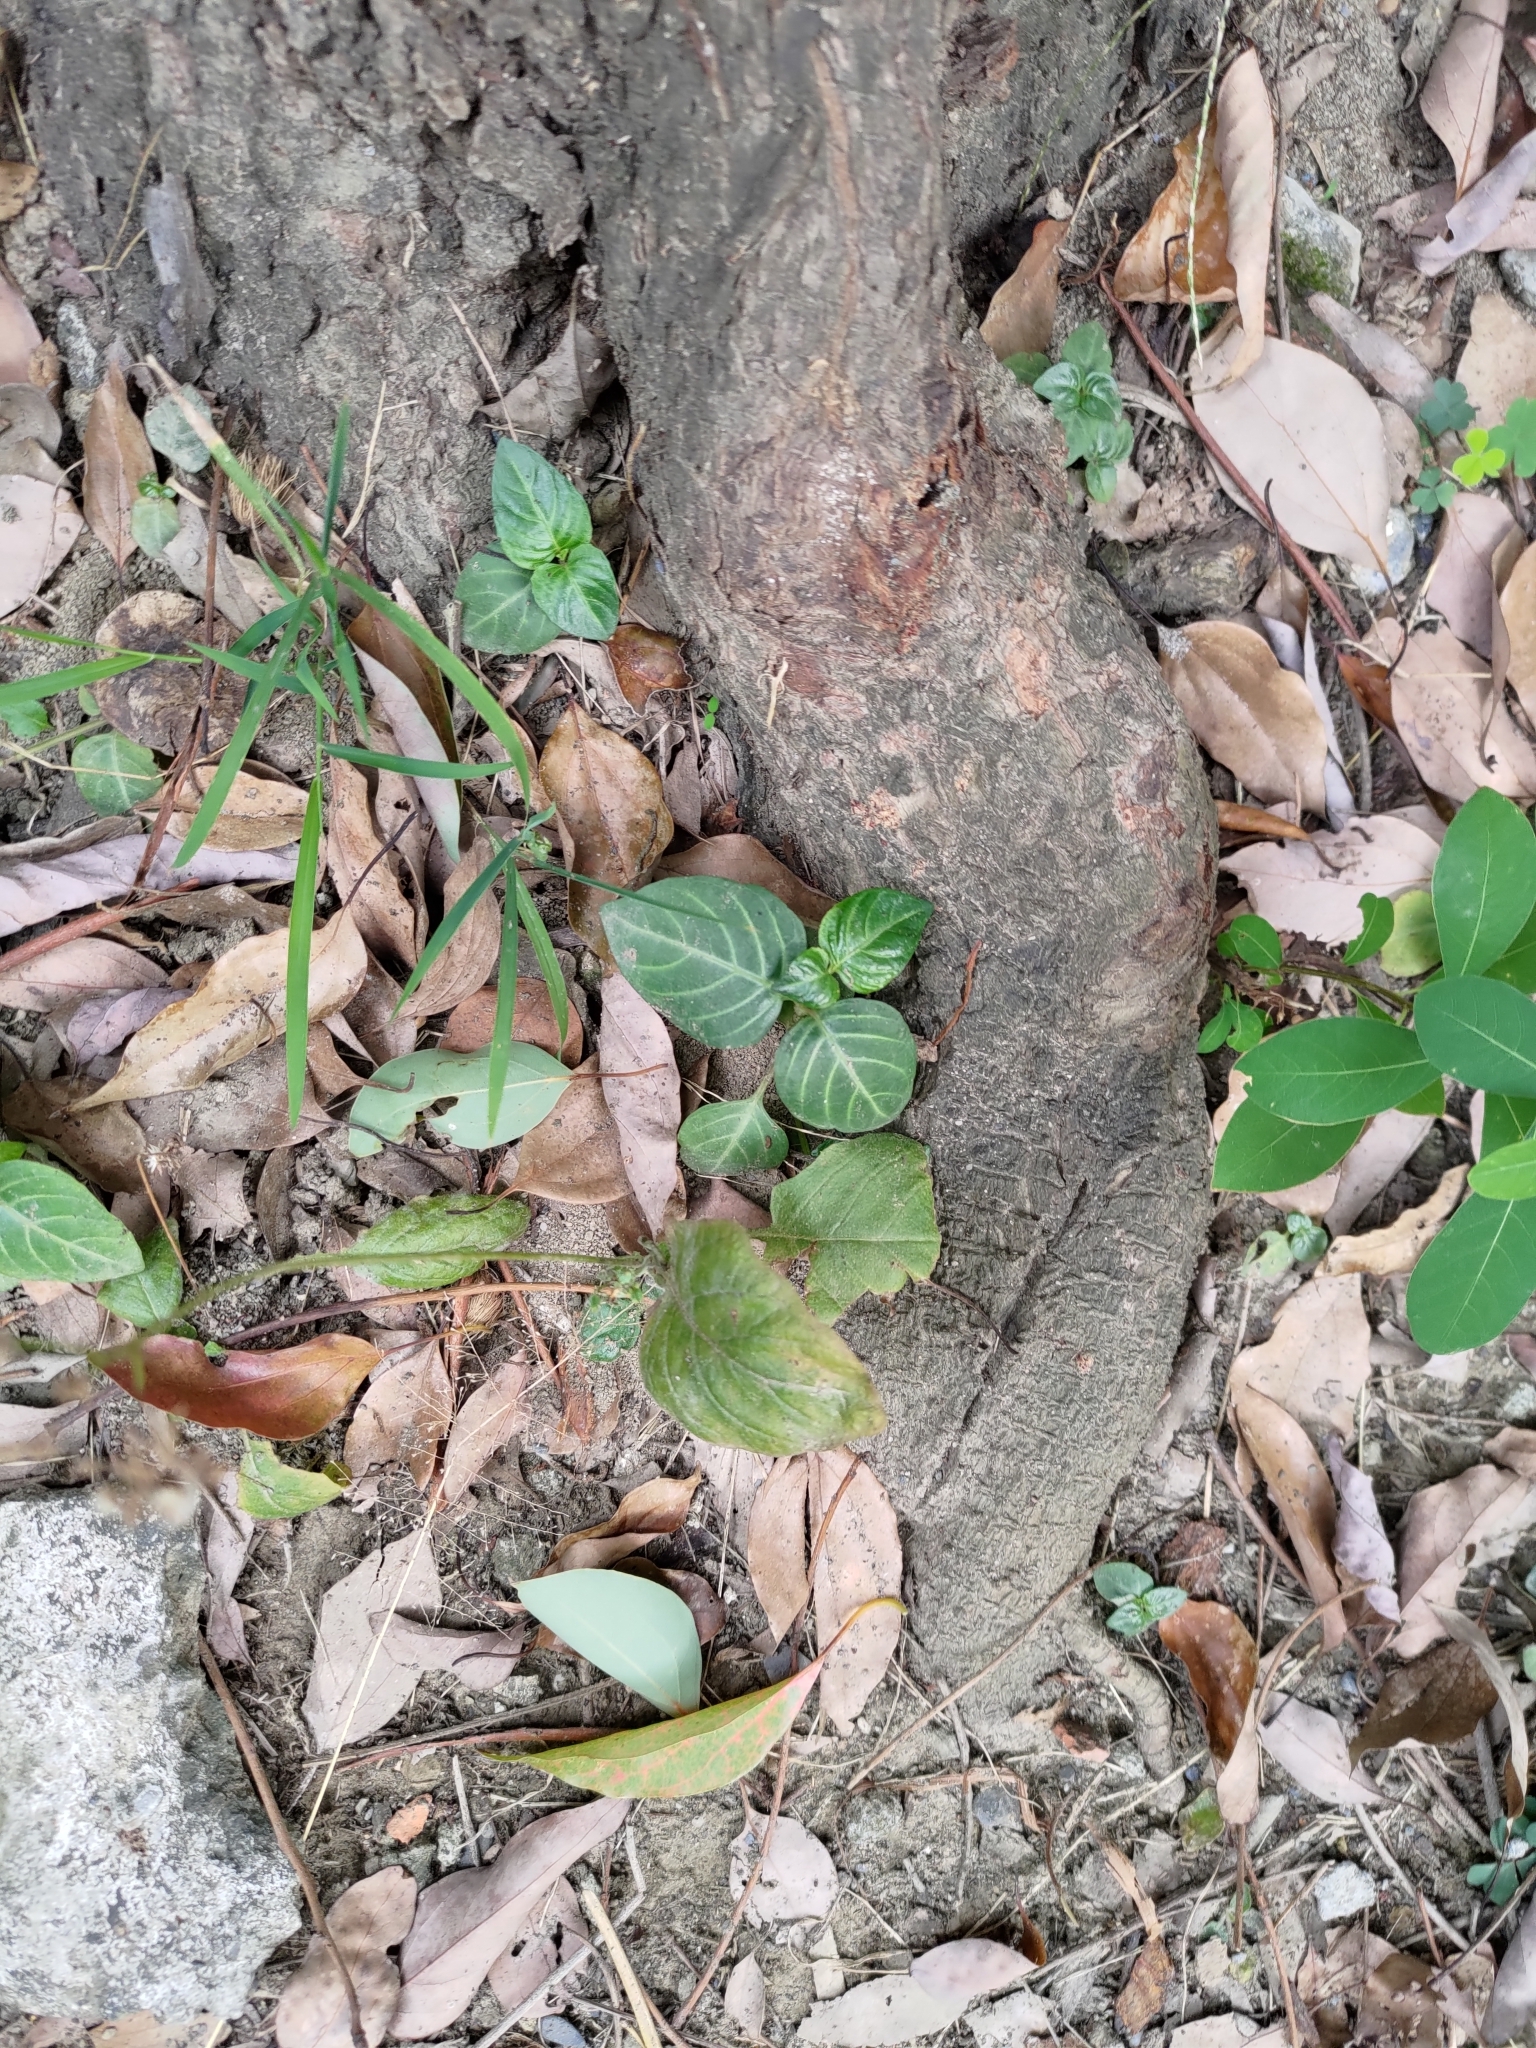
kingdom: Plantae
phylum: Tracheophyta
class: Magnoliopsida
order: Lamiales
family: Acanthaceae
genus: Lepidagathis
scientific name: Lepidagathis inaequalis
